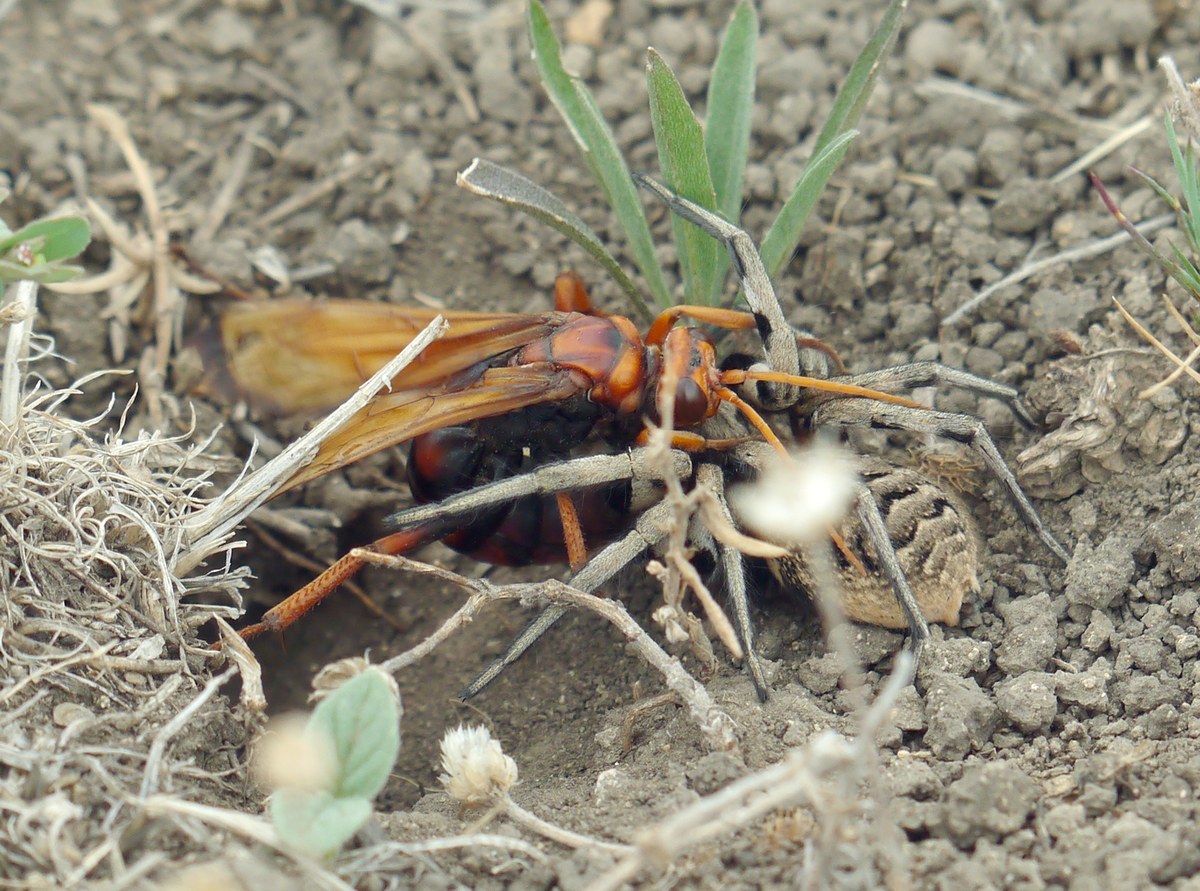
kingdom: Animalia
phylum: Arthropoda
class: Insecta
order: Hymenoptera
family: Pompilidae
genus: Cryptocheilus
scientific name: Cryptocheilus rubellus
